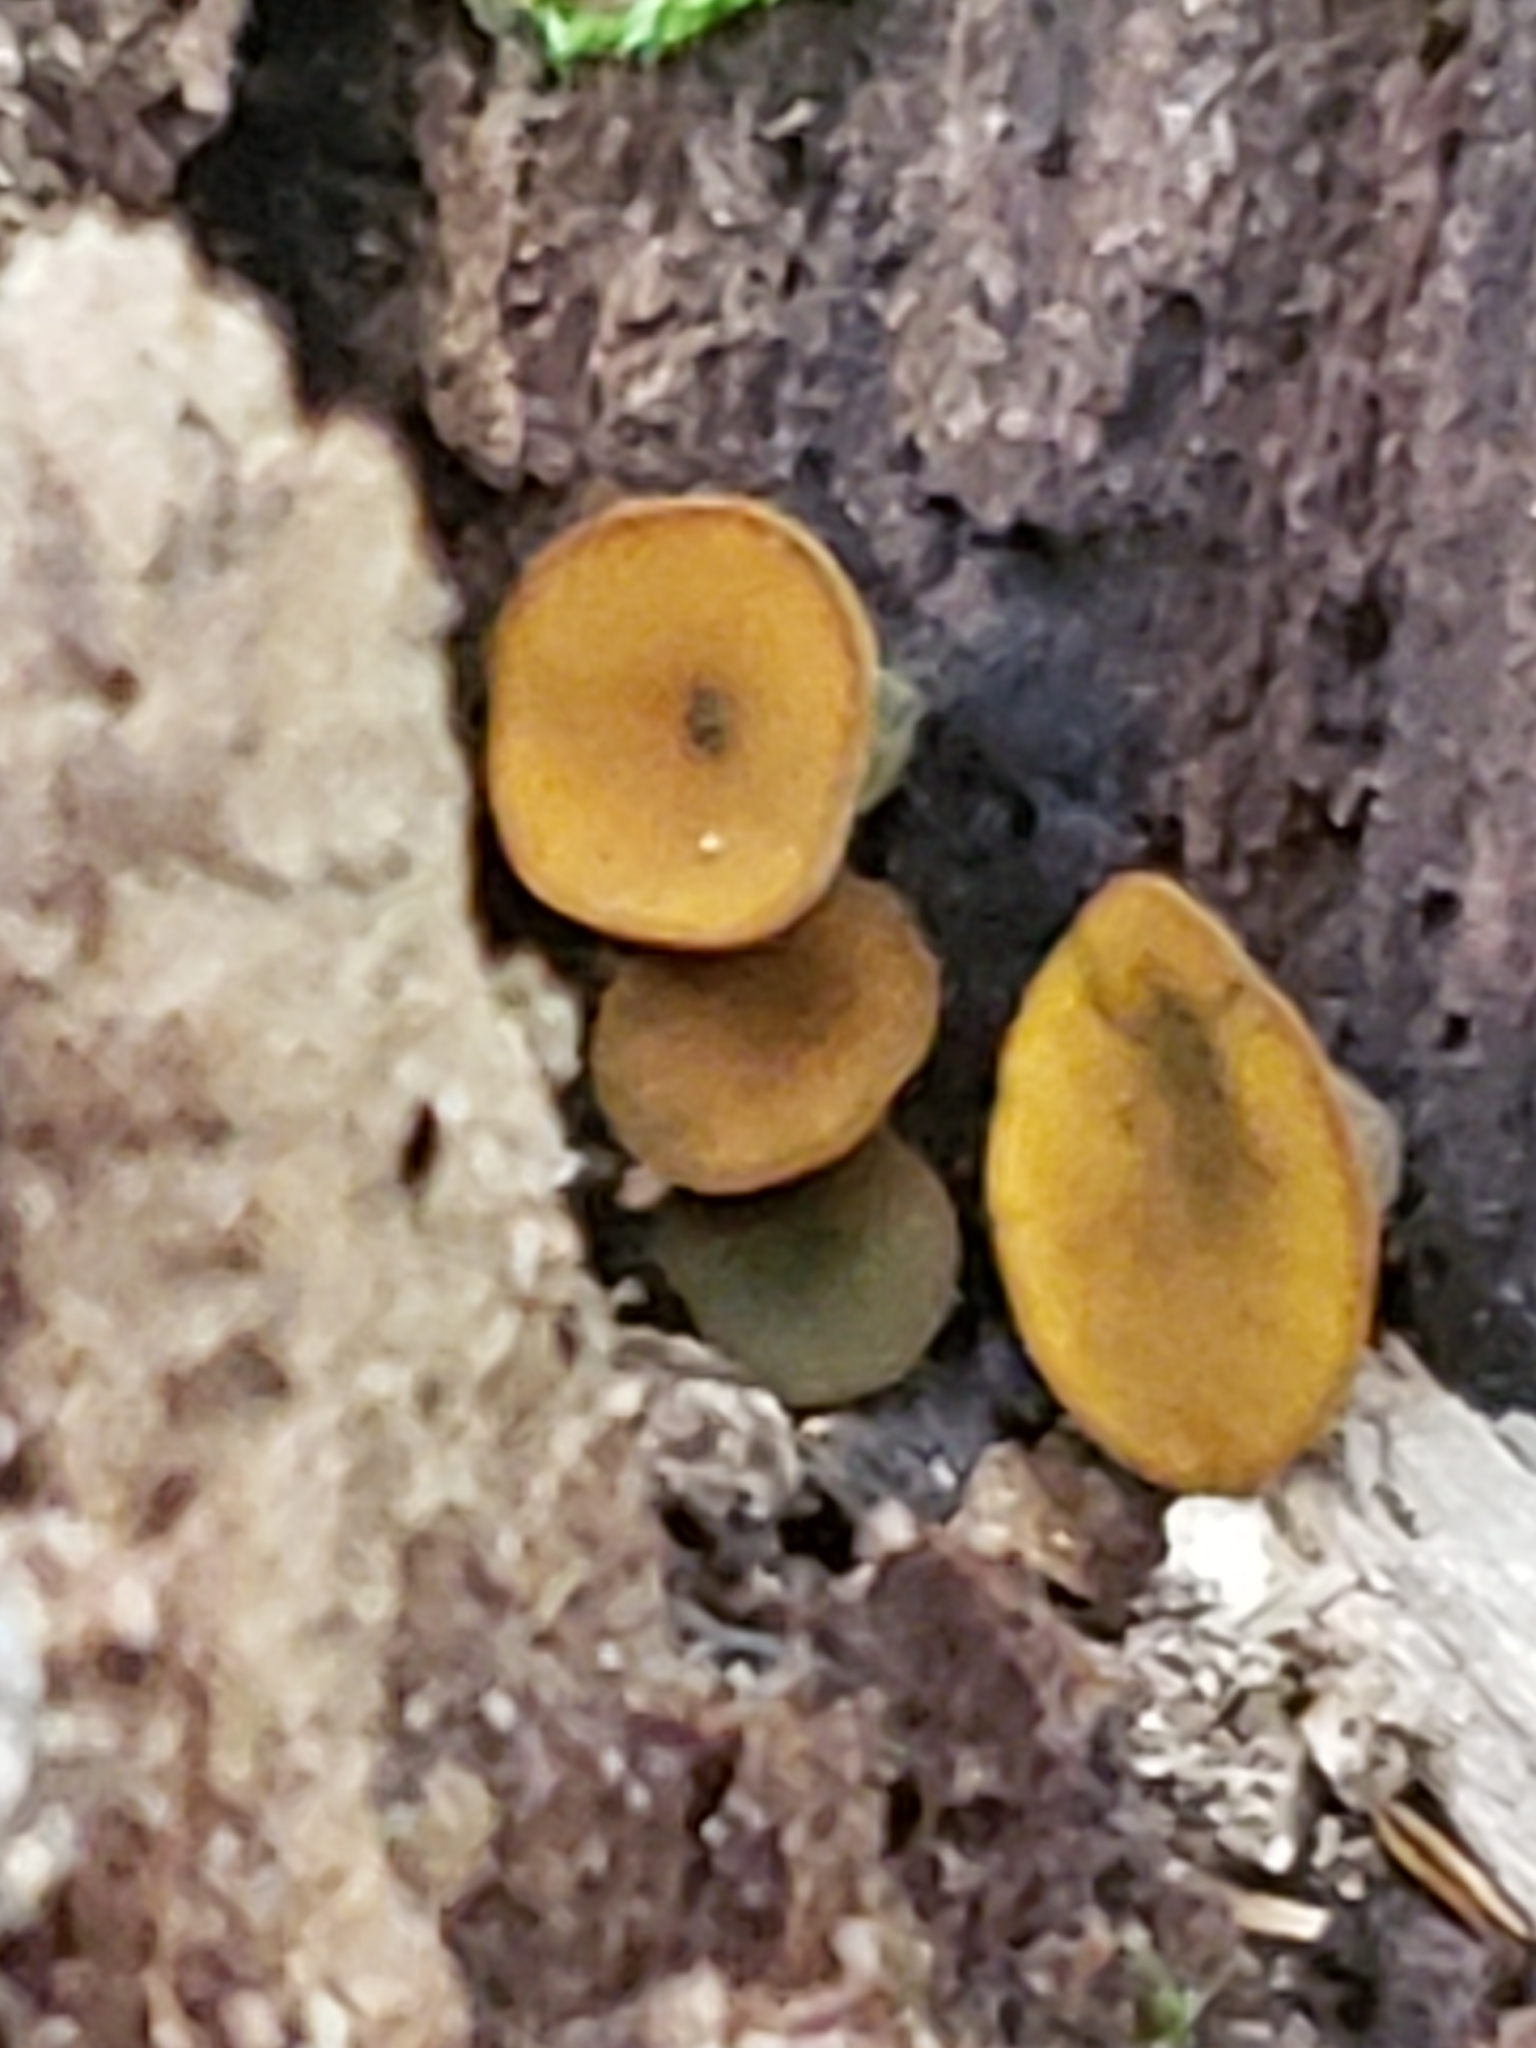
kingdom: Fungi
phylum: Ascomycota
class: Leotiomycetes
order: Helotiales
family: Cenangiaceae
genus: Chlorencoelia
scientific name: Chlorencoelia
